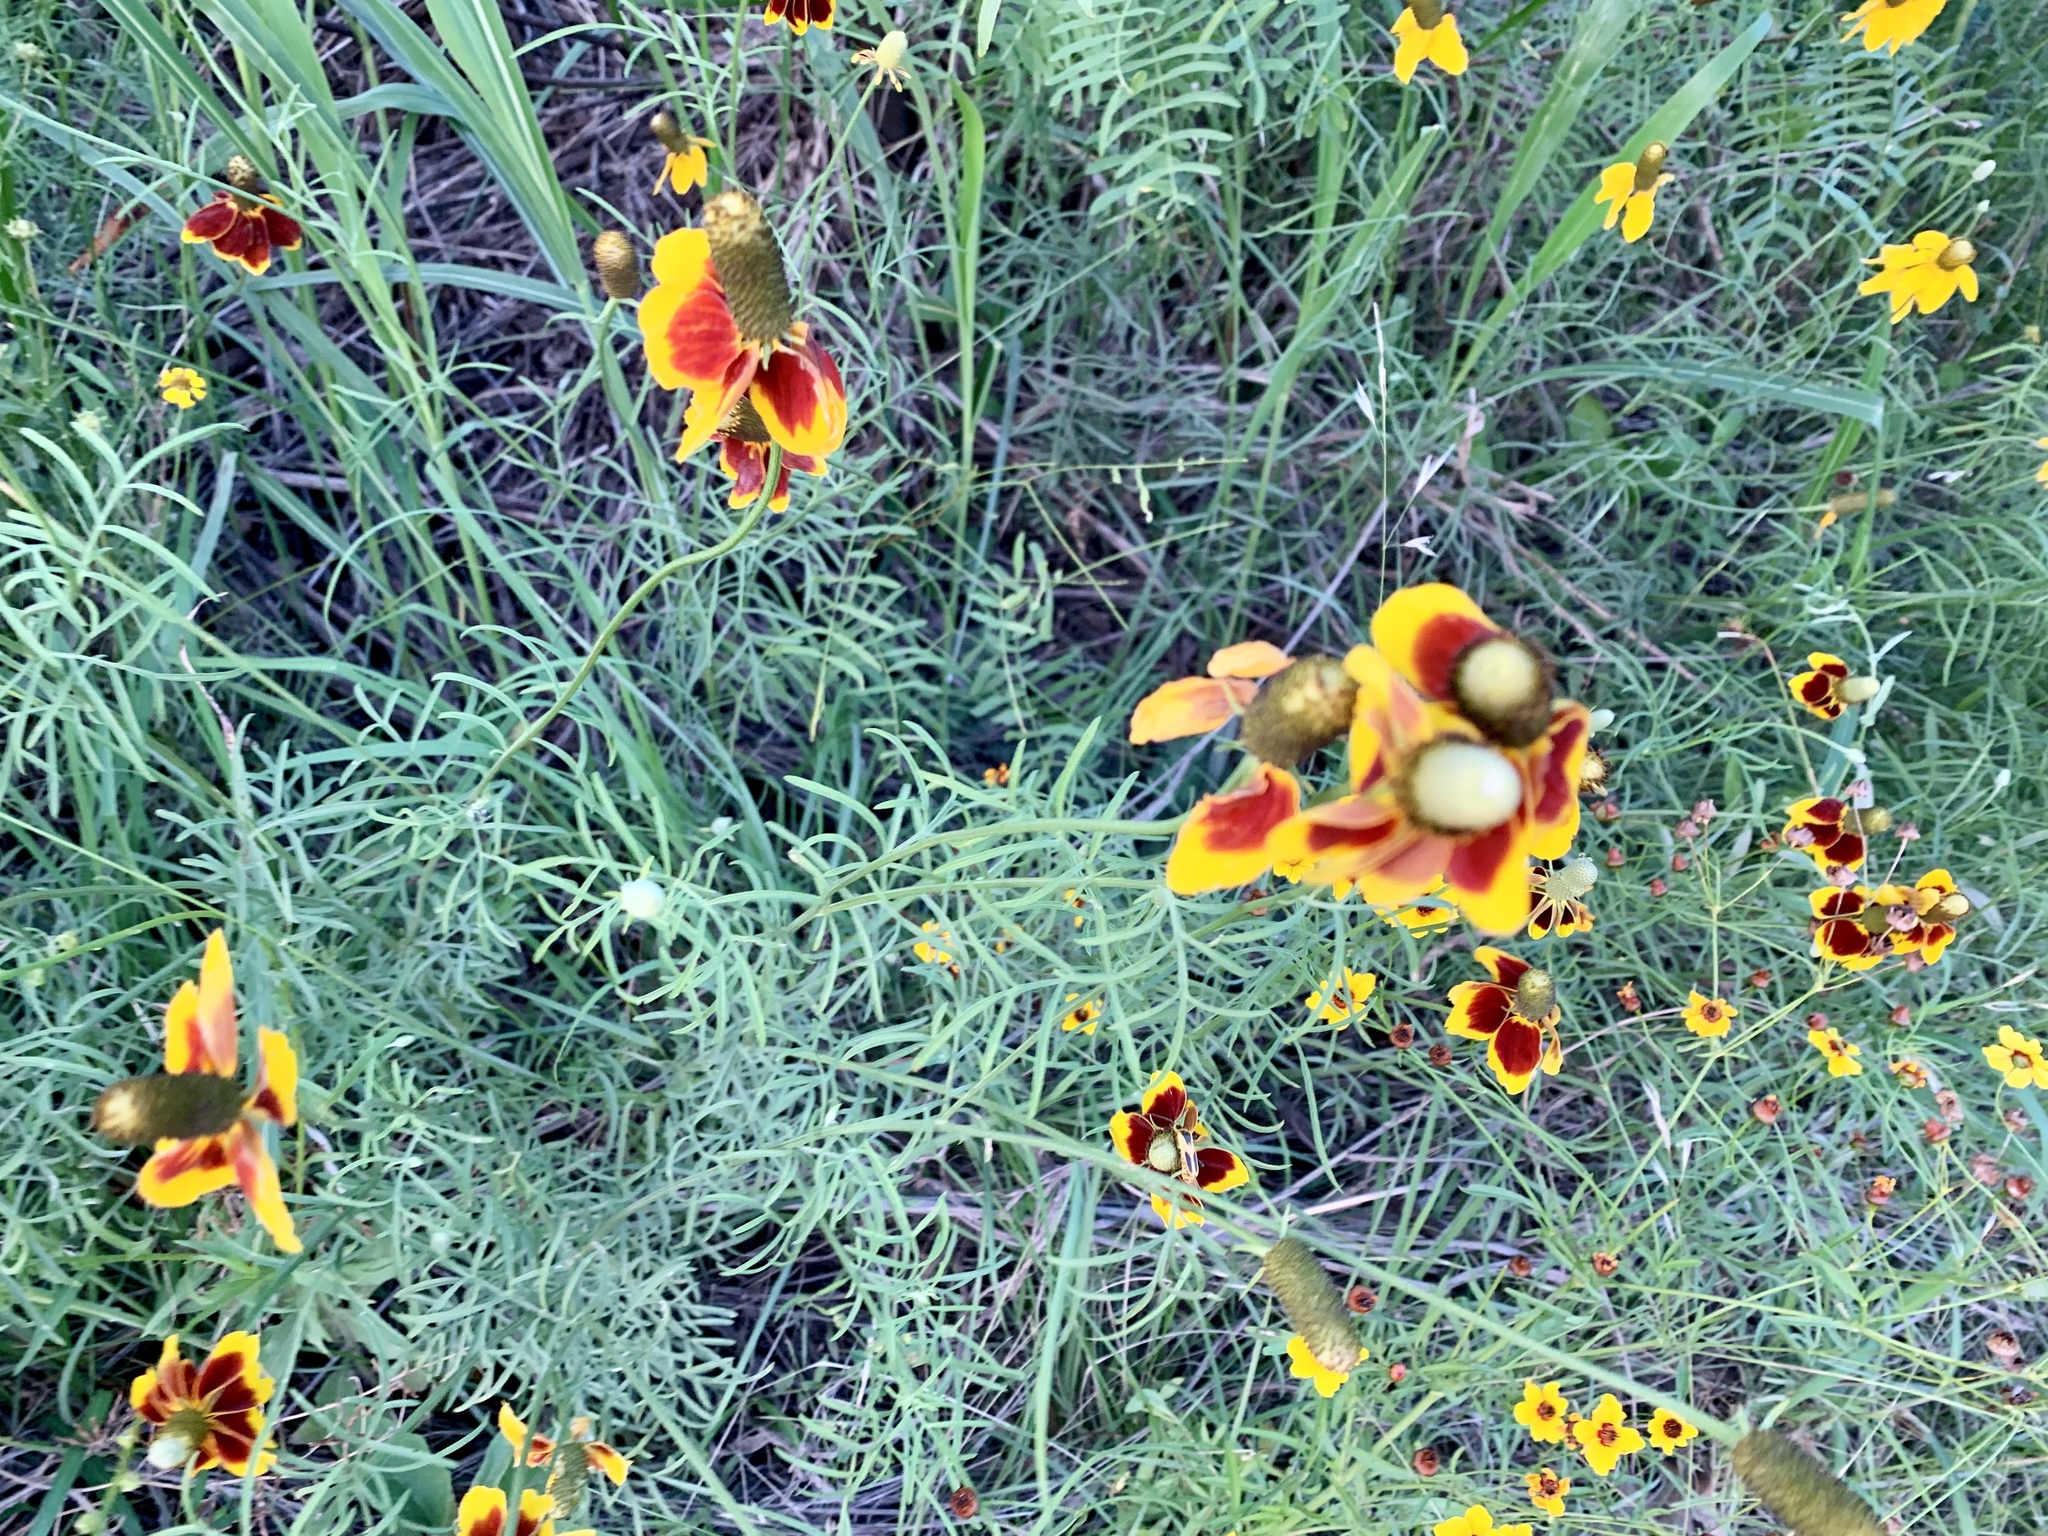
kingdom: Plantae
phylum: Tracheophyta
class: Magnoliopsida
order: Asterales
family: Asteraceae
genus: Ratibida
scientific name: Ratibida columnifera
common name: Prairie coneflower
